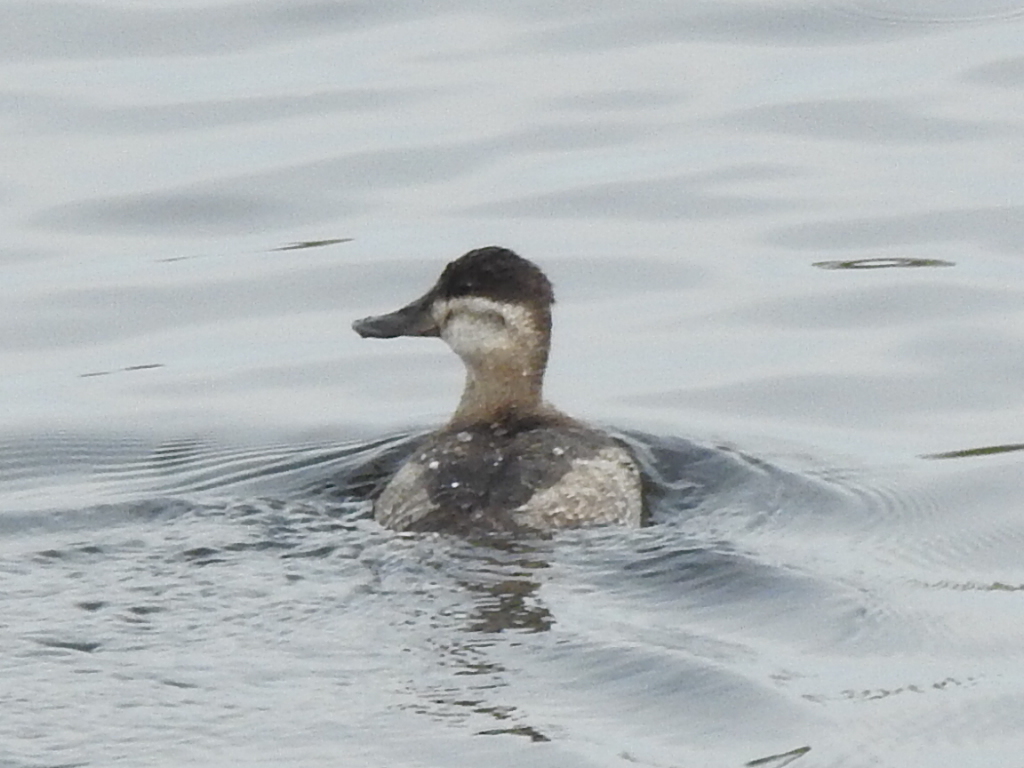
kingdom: Animalia
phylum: Chordata
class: Aves
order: Anseriformes
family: Anatidae
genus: Oxyura
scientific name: Oxyura jamaicensis
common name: Ruddy duck
